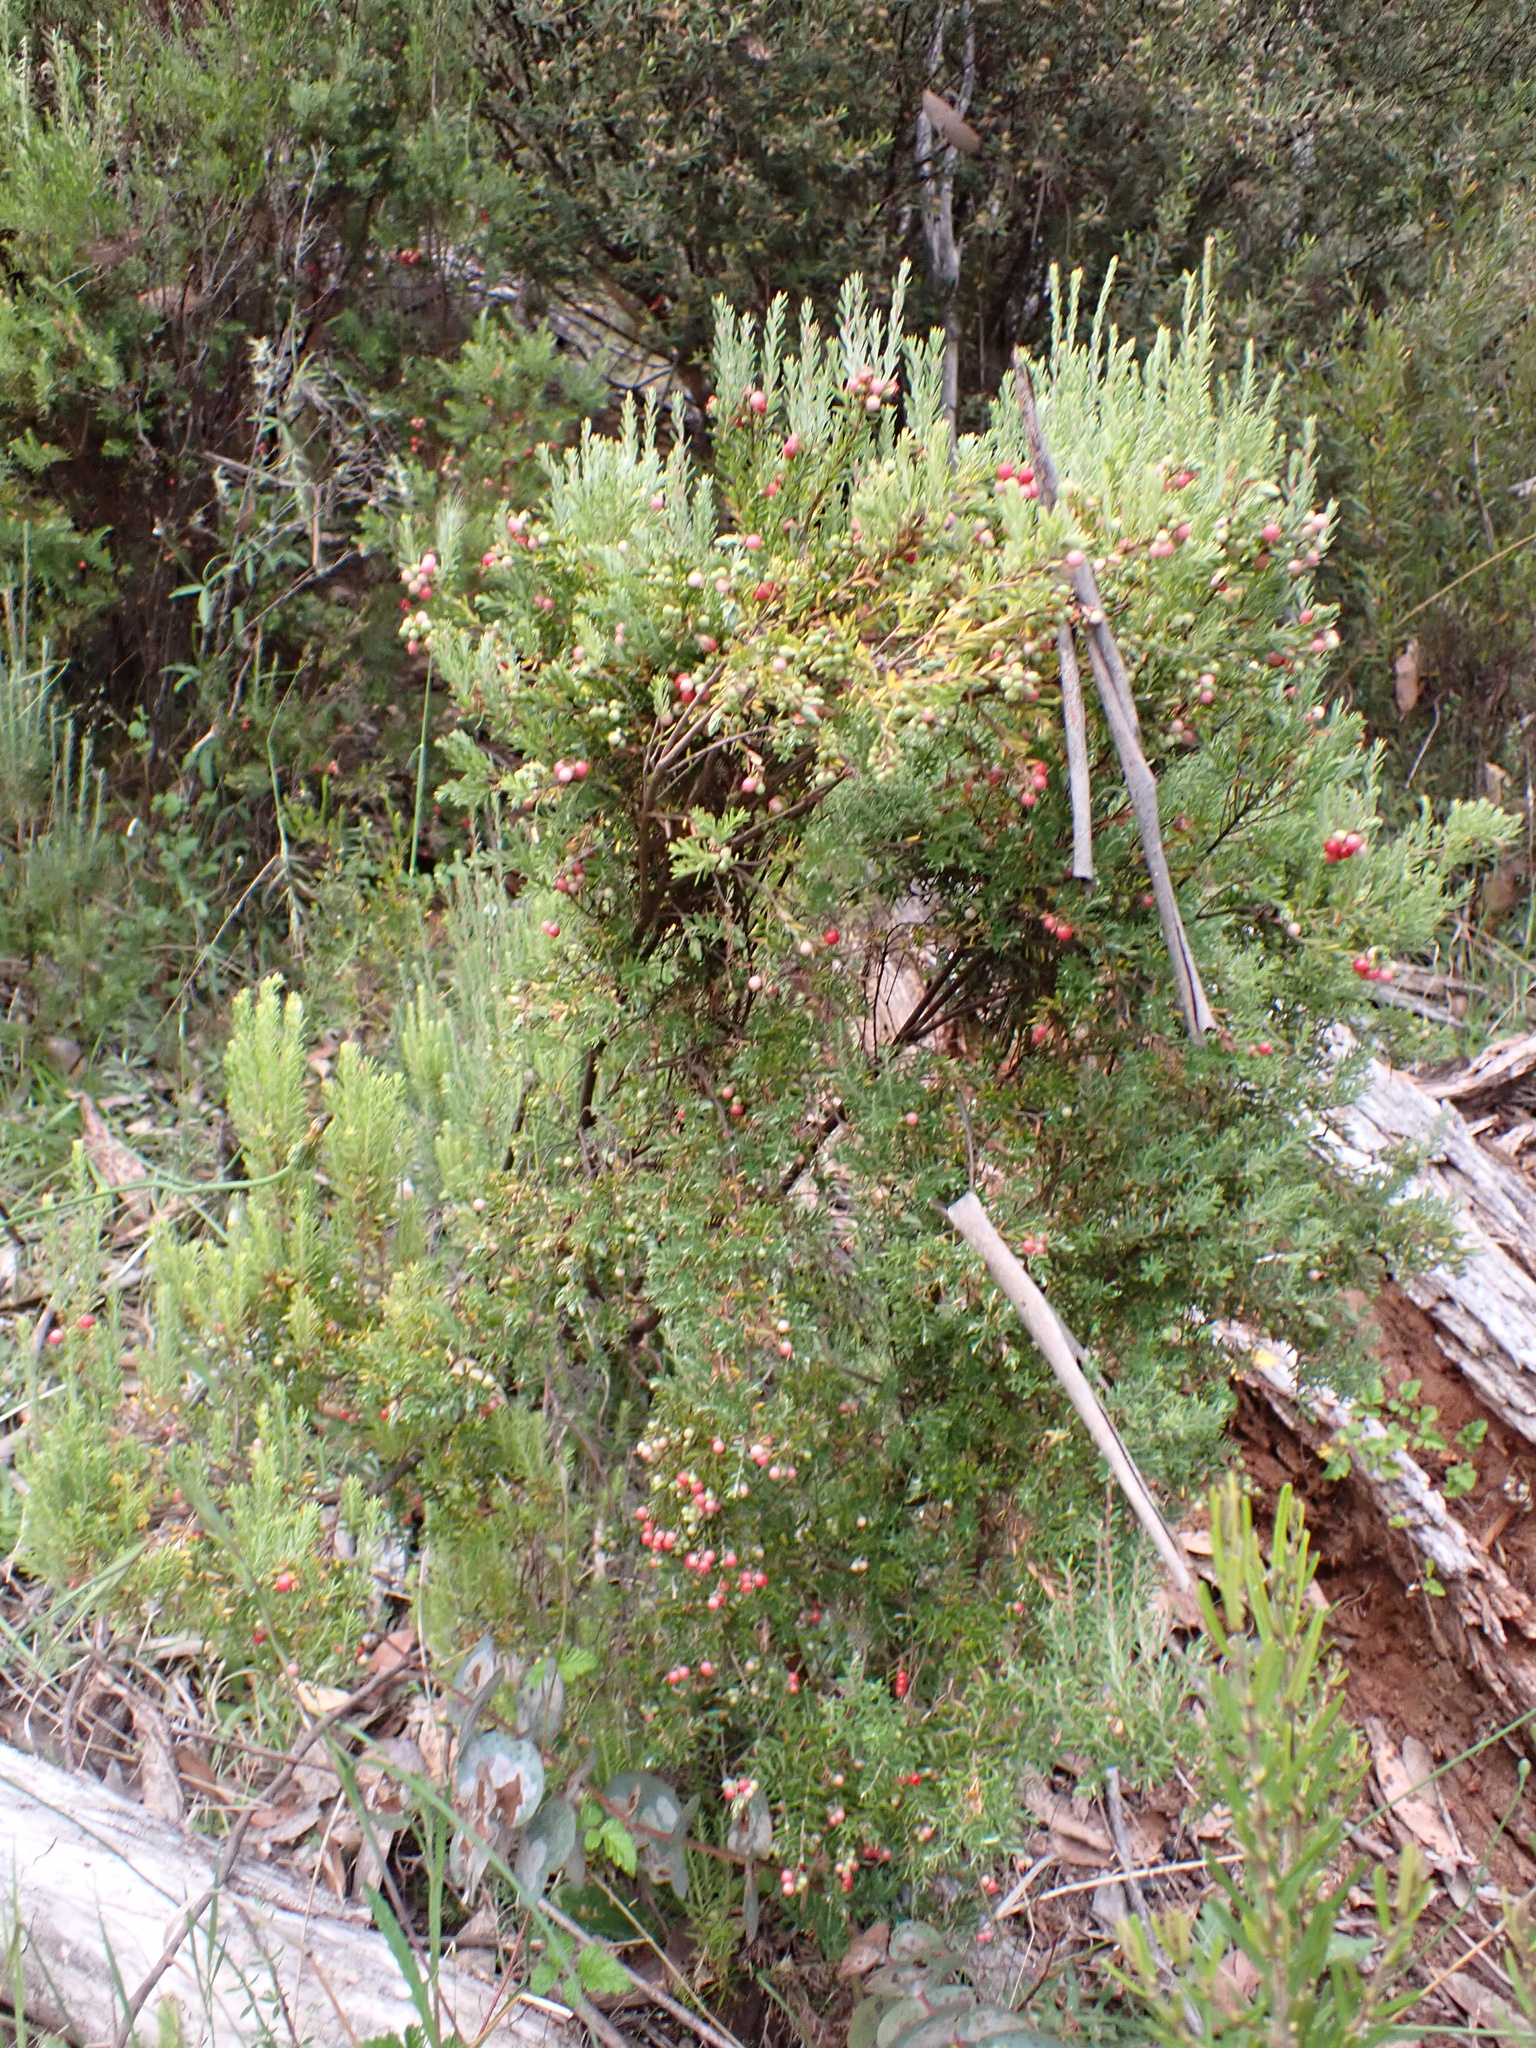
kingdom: Plantae
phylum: Tracheophyta
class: Magnoliopsida
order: Ericales
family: Ericaceae
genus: Acrothamnus
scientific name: Acrothamnus hookeri
